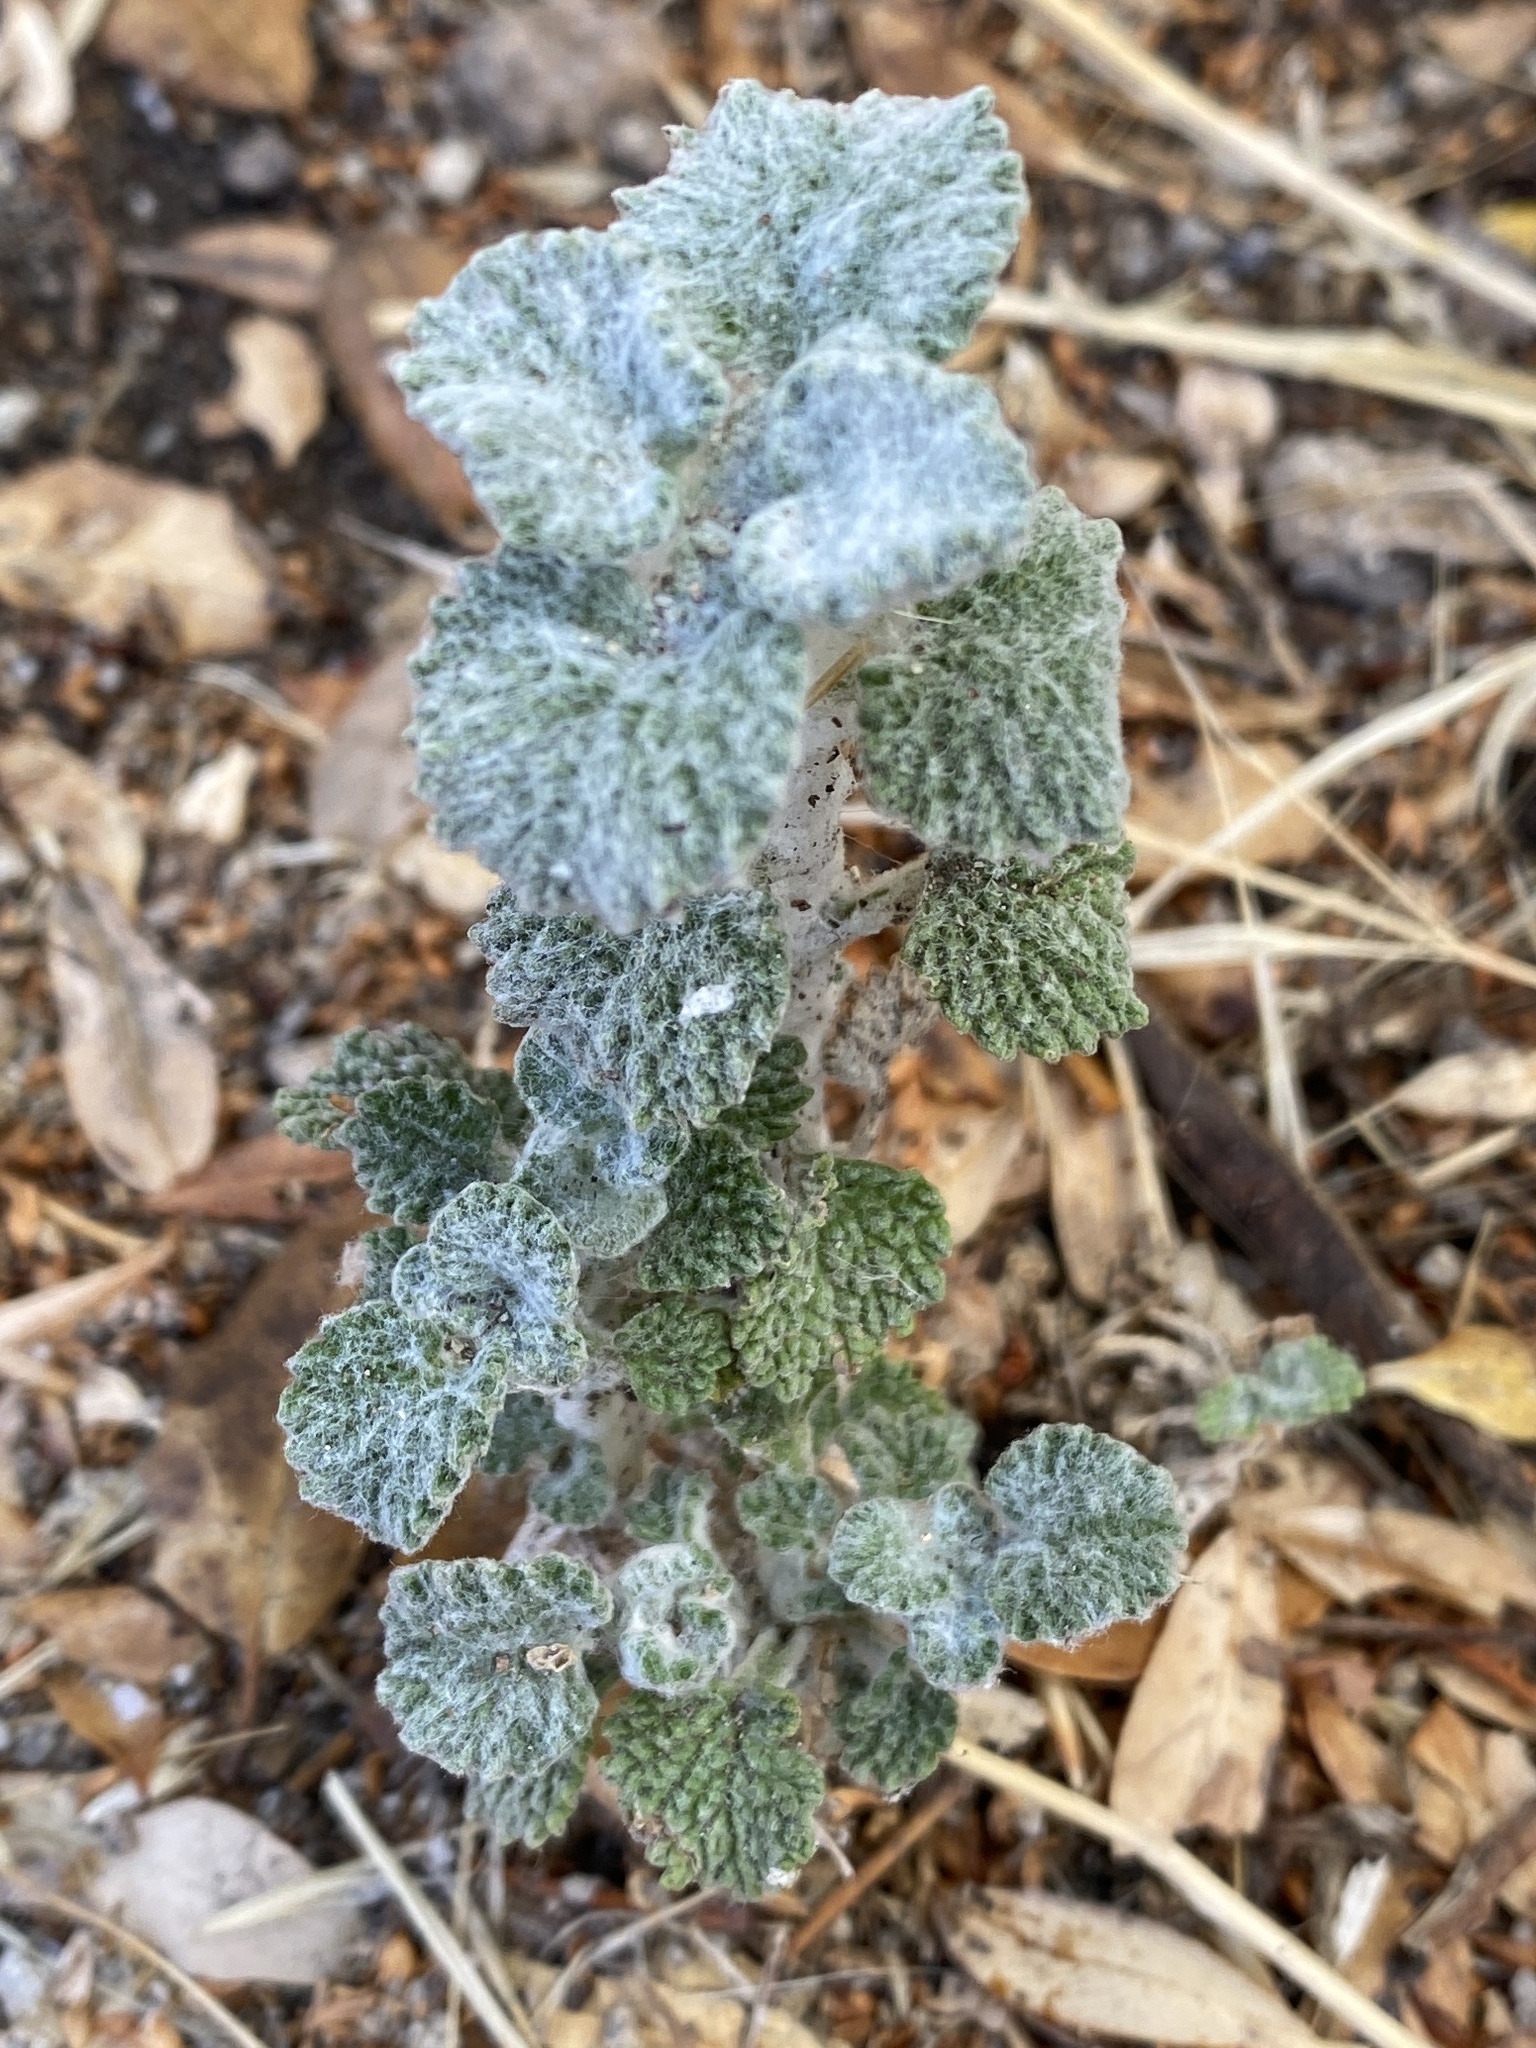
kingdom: Plantae
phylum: Tracheophyta
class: Magnoliopsida
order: Lamiales
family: Lamiaceae
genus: Marrubium
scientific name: Marrubium vulgare
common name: Horehound
